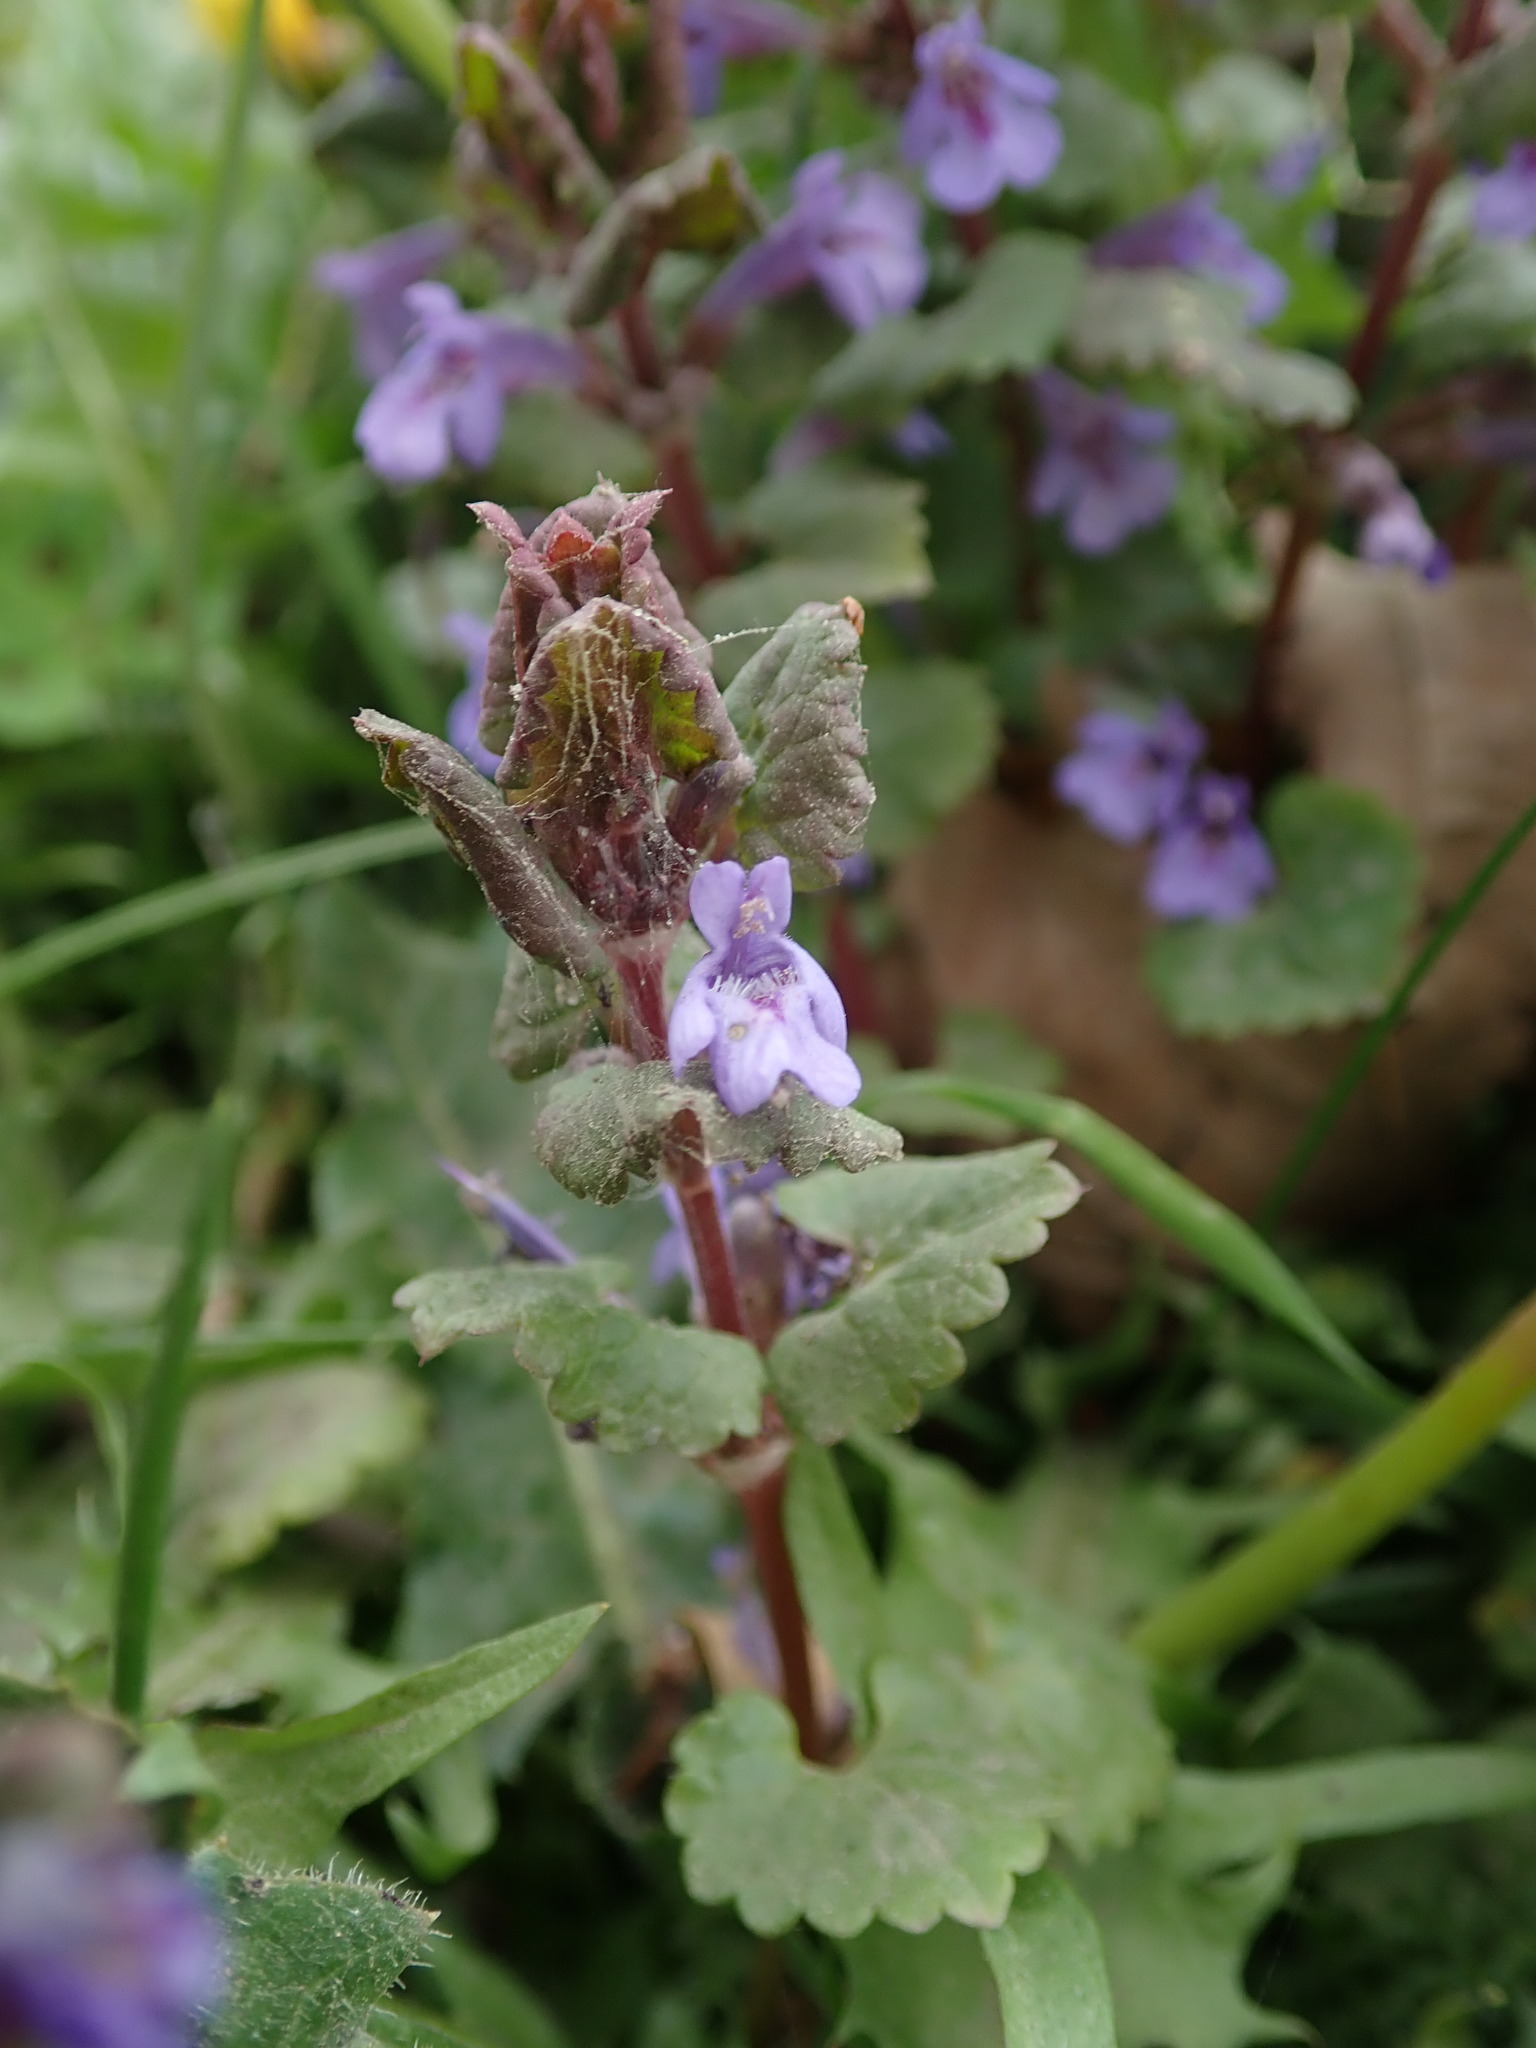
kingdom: Plantae
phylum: Tracheophyta
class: Magnoliopsida
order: Lamiales
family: Lamiaceae
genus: Glechoma
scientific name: Glechoma hederacea
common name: Ground ivy
